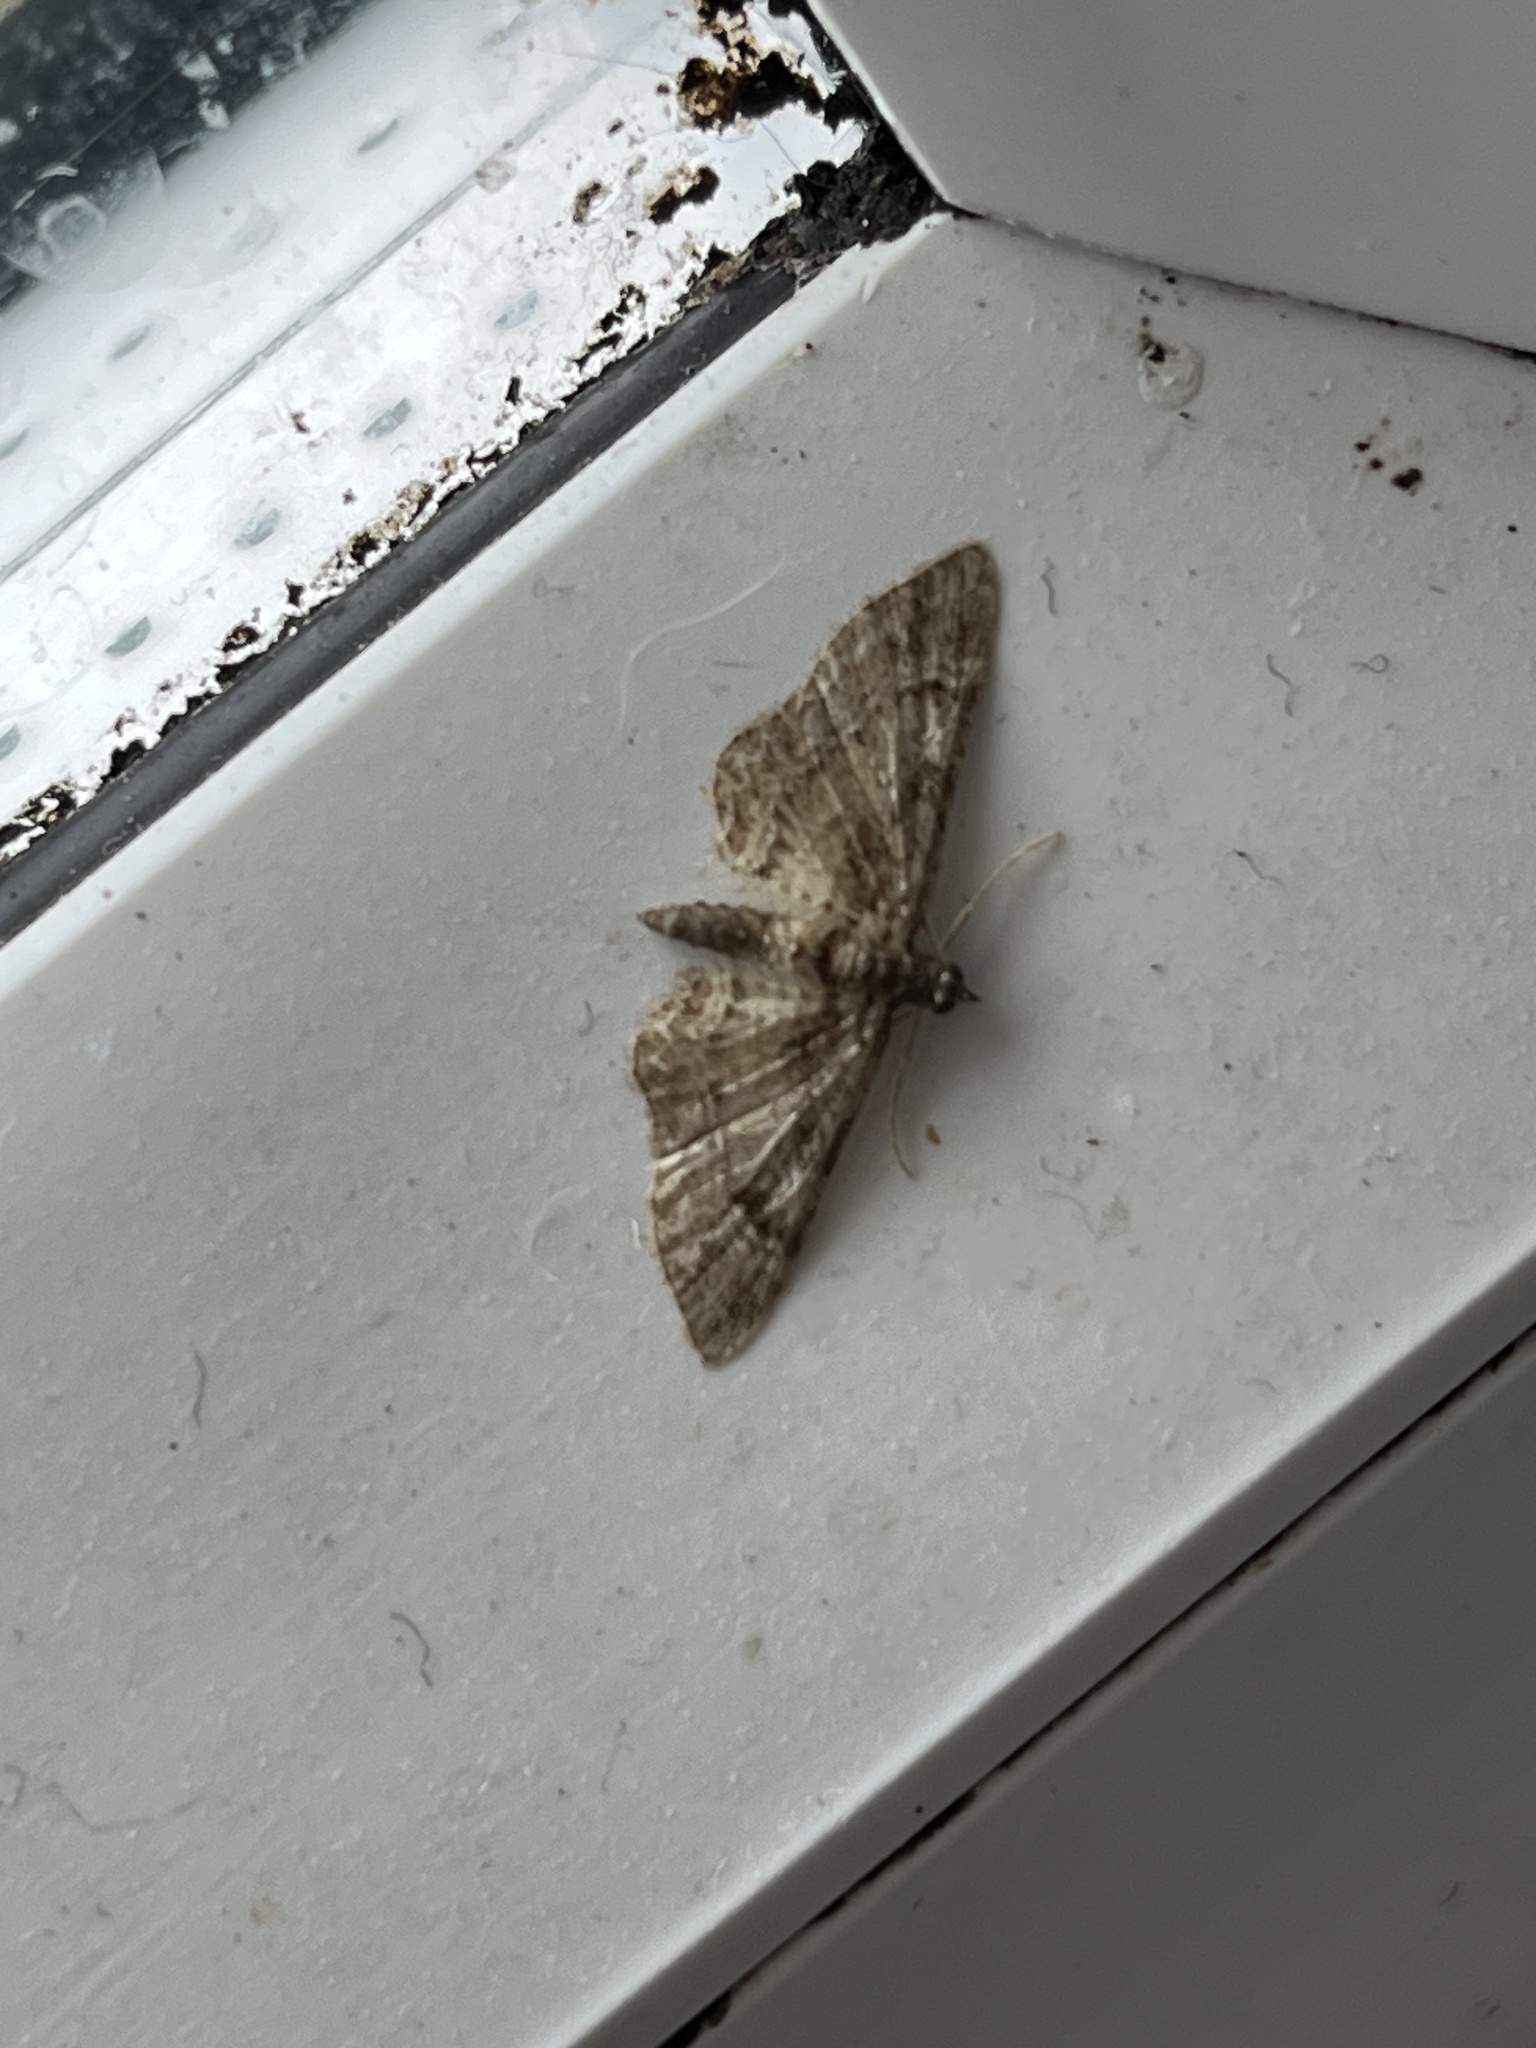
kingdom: Animalia
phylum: Arthropoda
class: Insecta
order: Lepidoptera
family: Geometridae
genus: Gymnoscelis
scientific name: Gymnoscelis rufifasciata
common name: Double-striped pug
